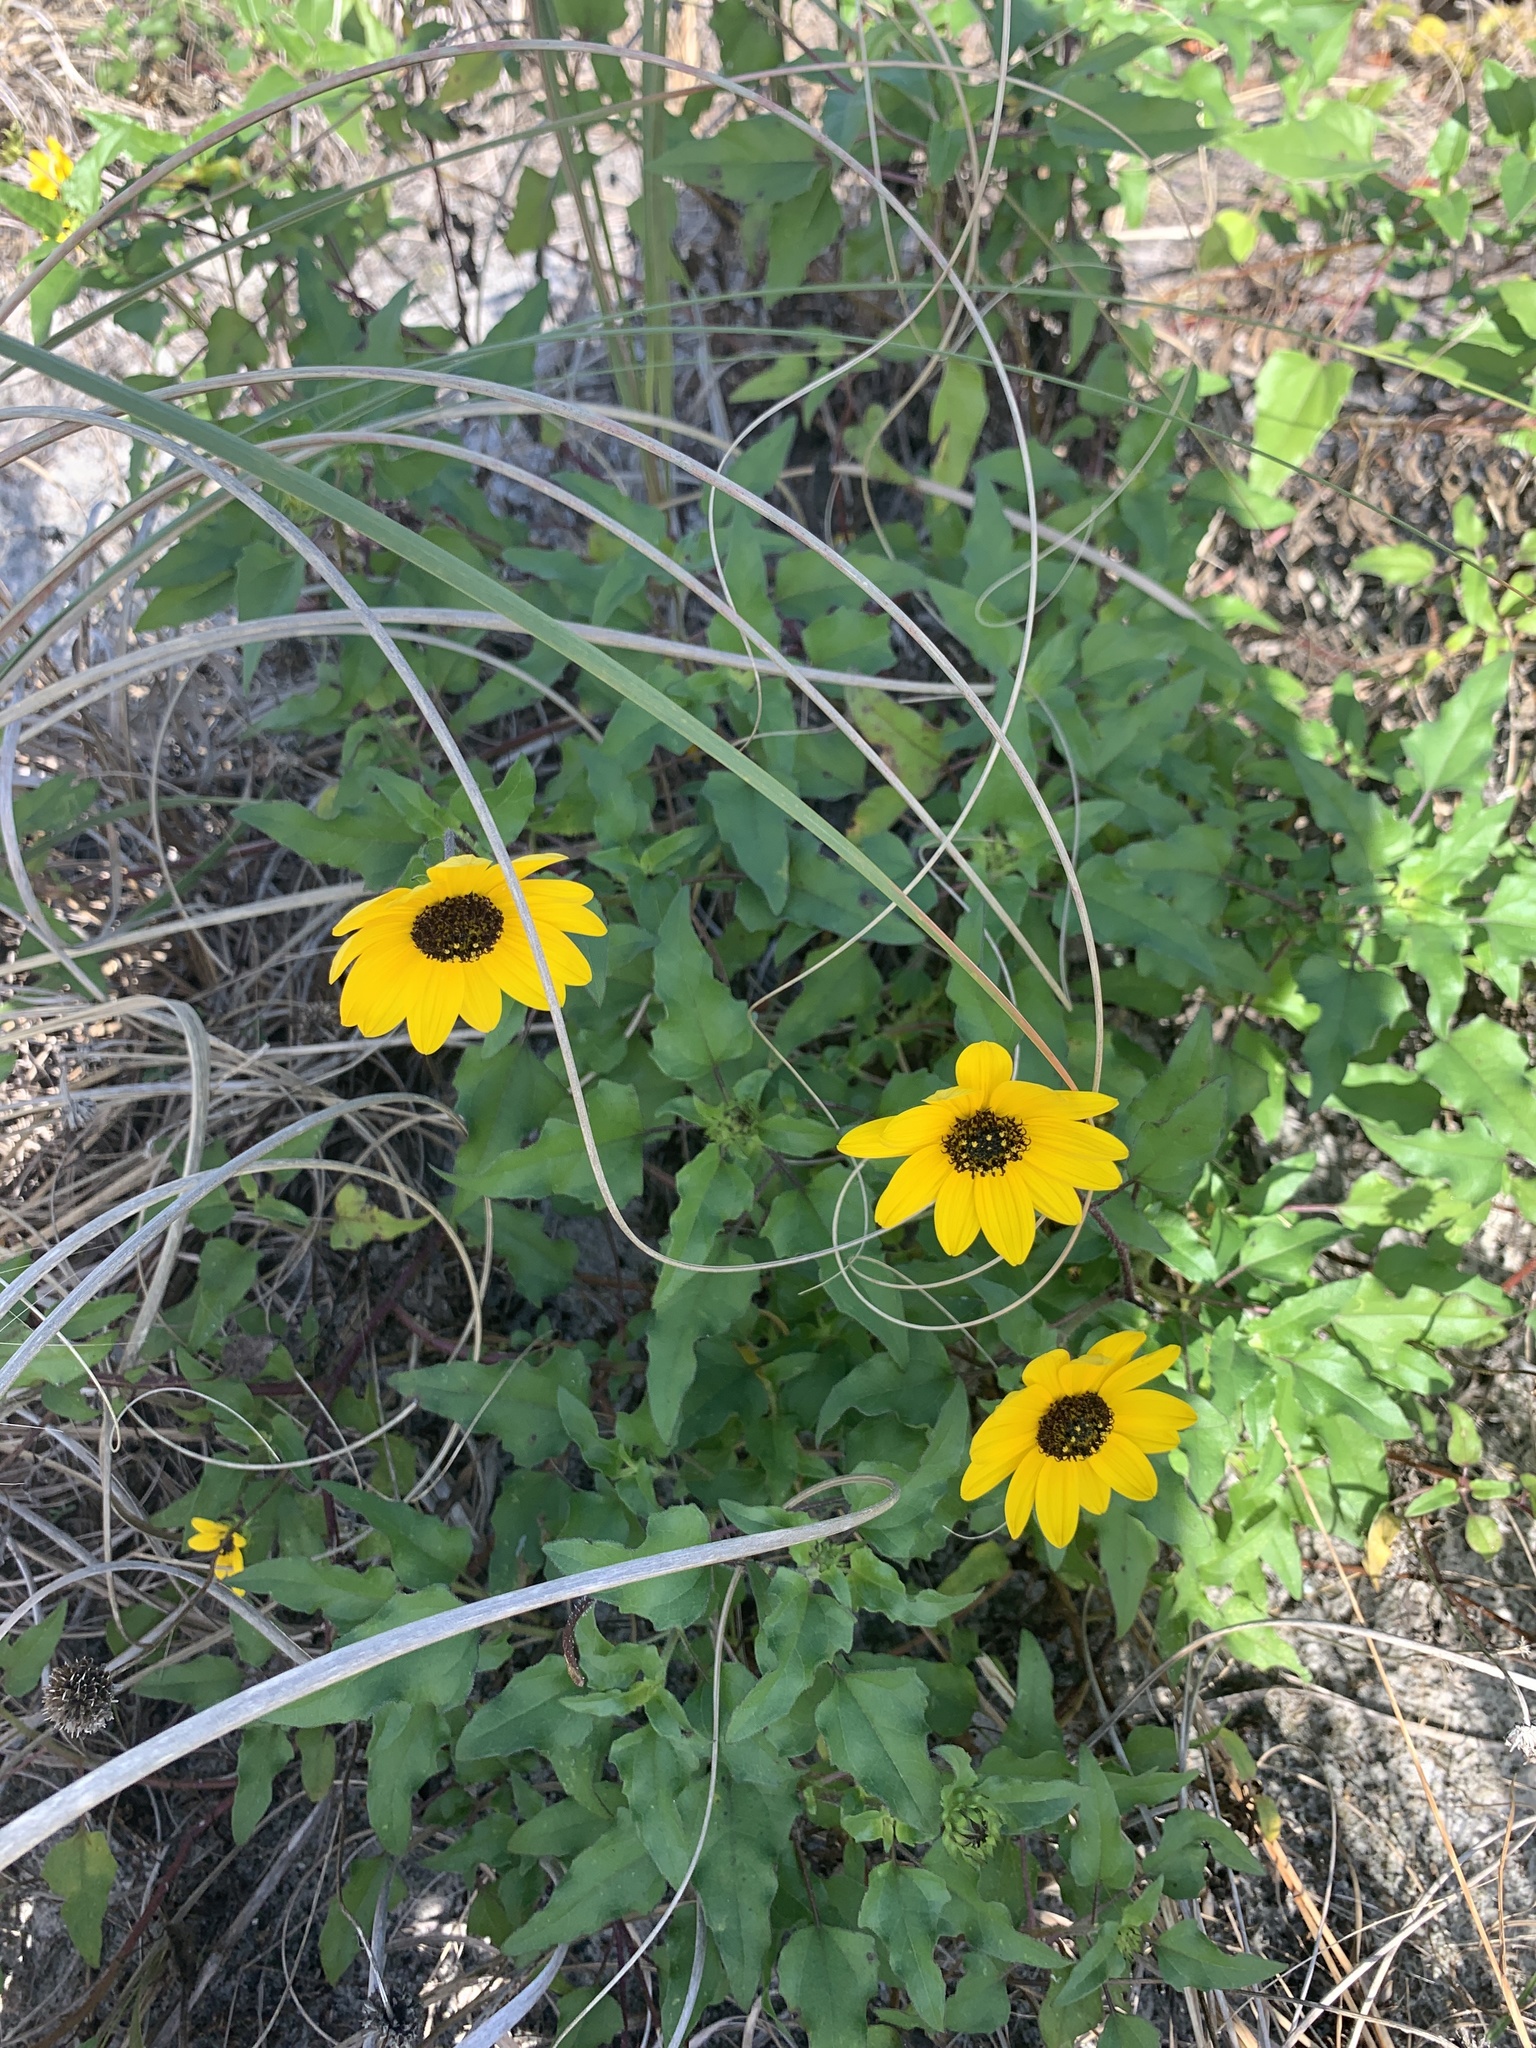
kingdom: Plantae
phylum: Tracheophyta
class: Magnoliopsida
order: Asterales
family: Asteraceae
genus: Helianthus
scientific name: Helianthus debilis
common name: Weak sunflower
